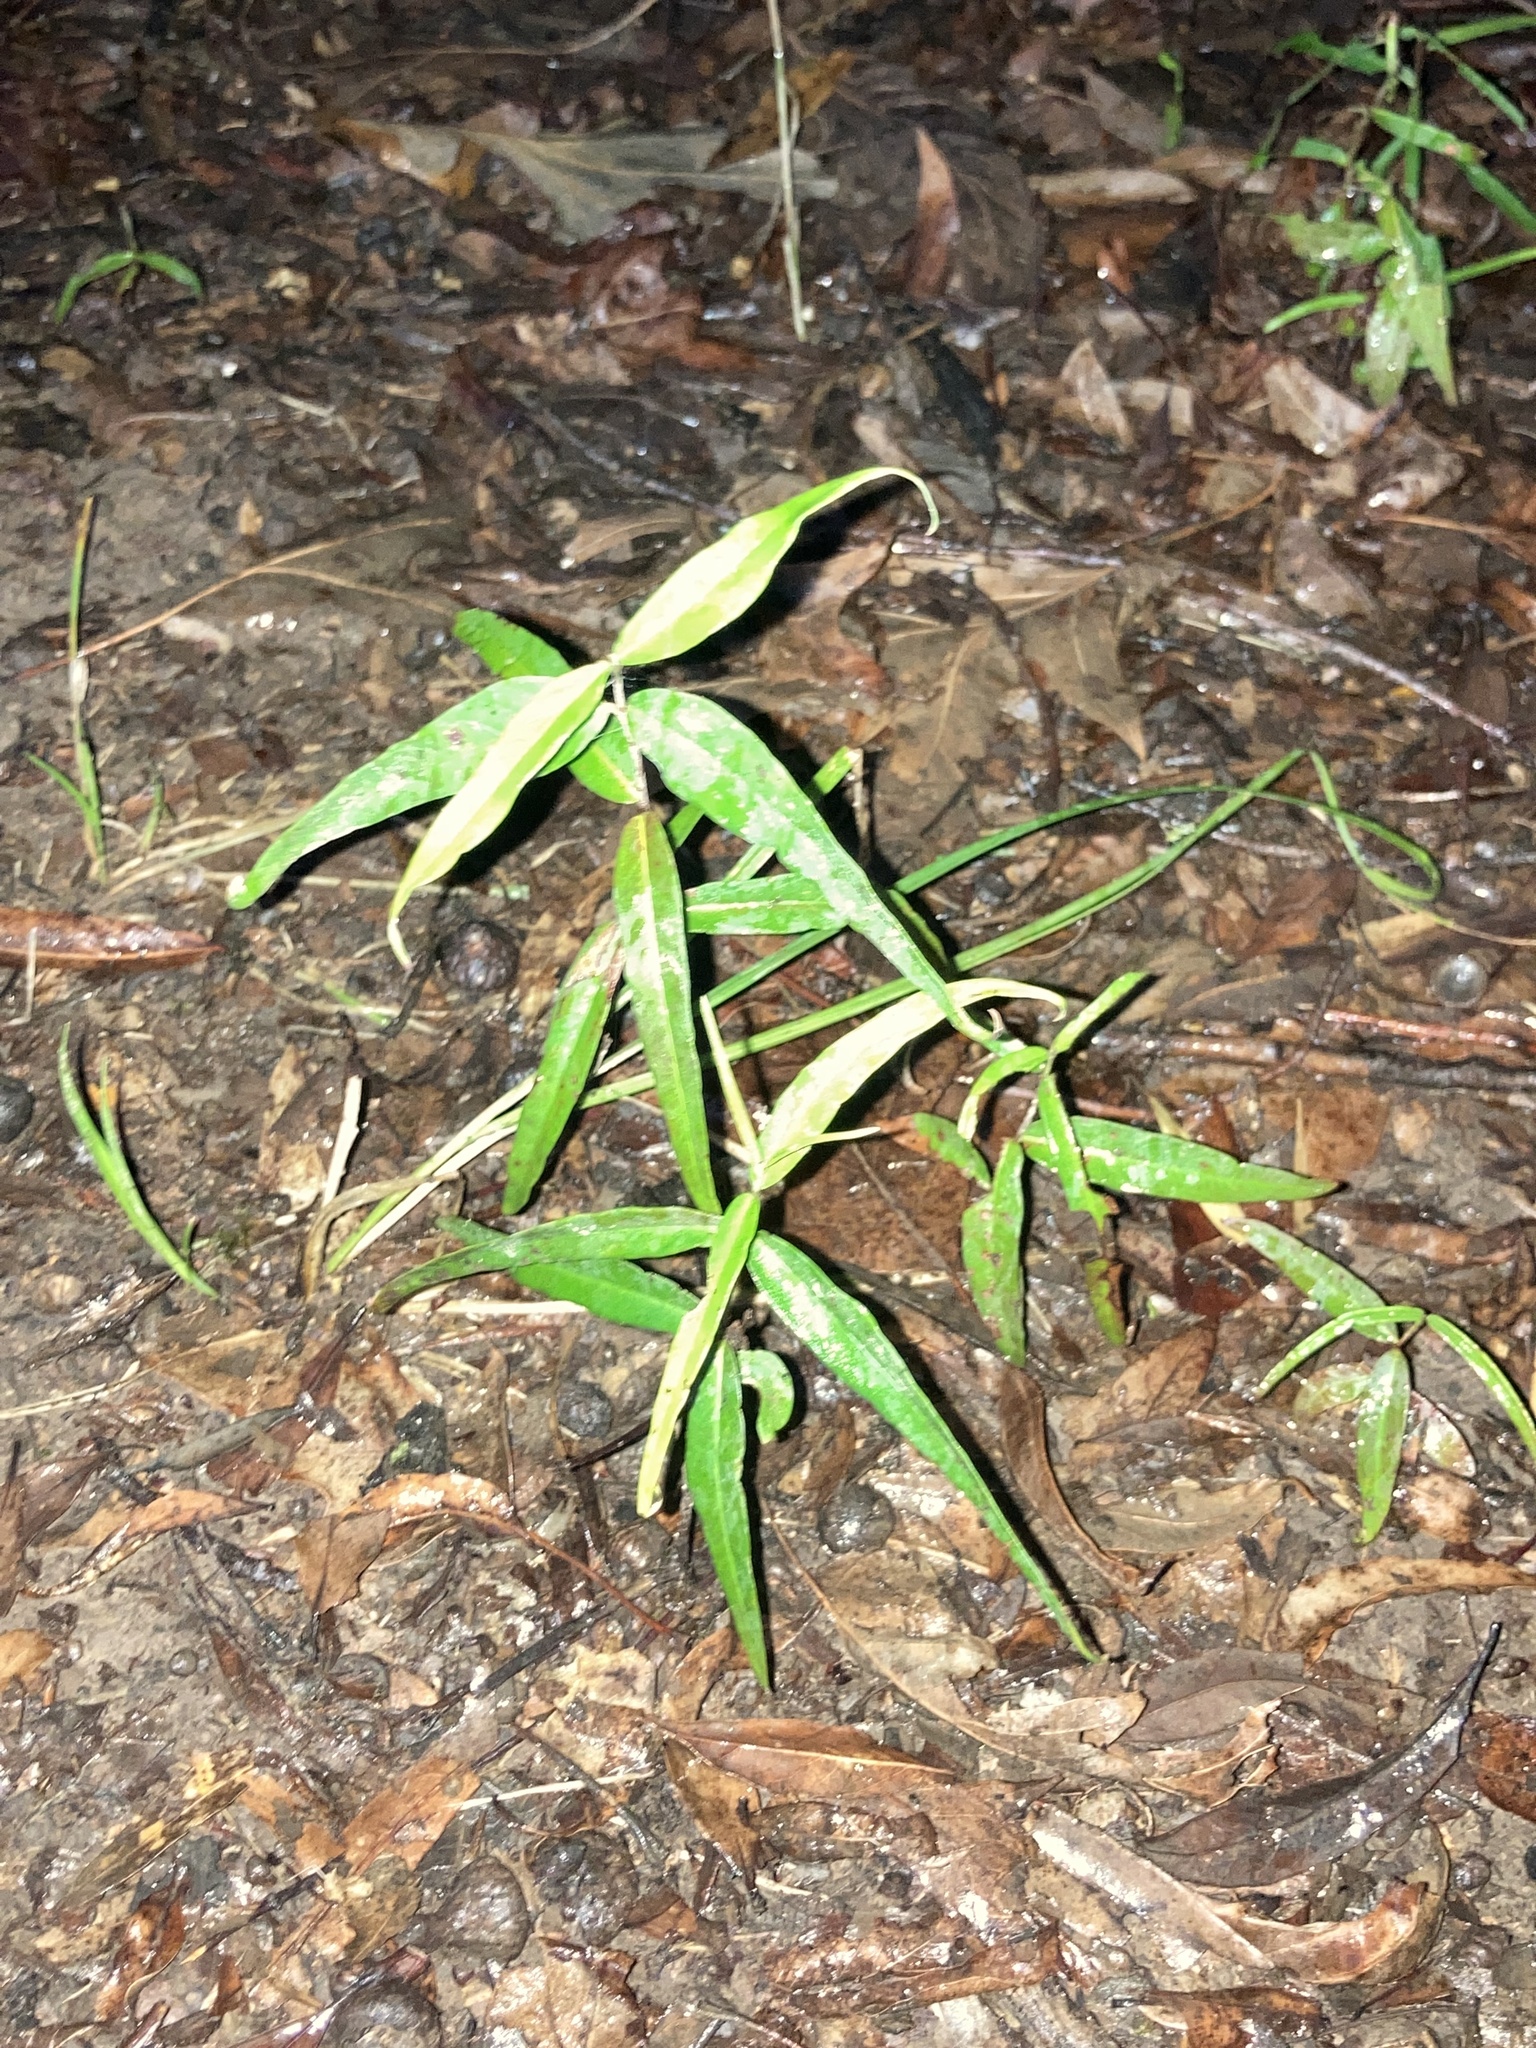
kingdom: Plantae
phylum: Tracheophyta
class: Magnoliopsida
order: Gentianales
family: Apocynaceae
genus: Thyrsanthella
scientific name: Thyrsanthella difformis
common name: Climbing dogbane
